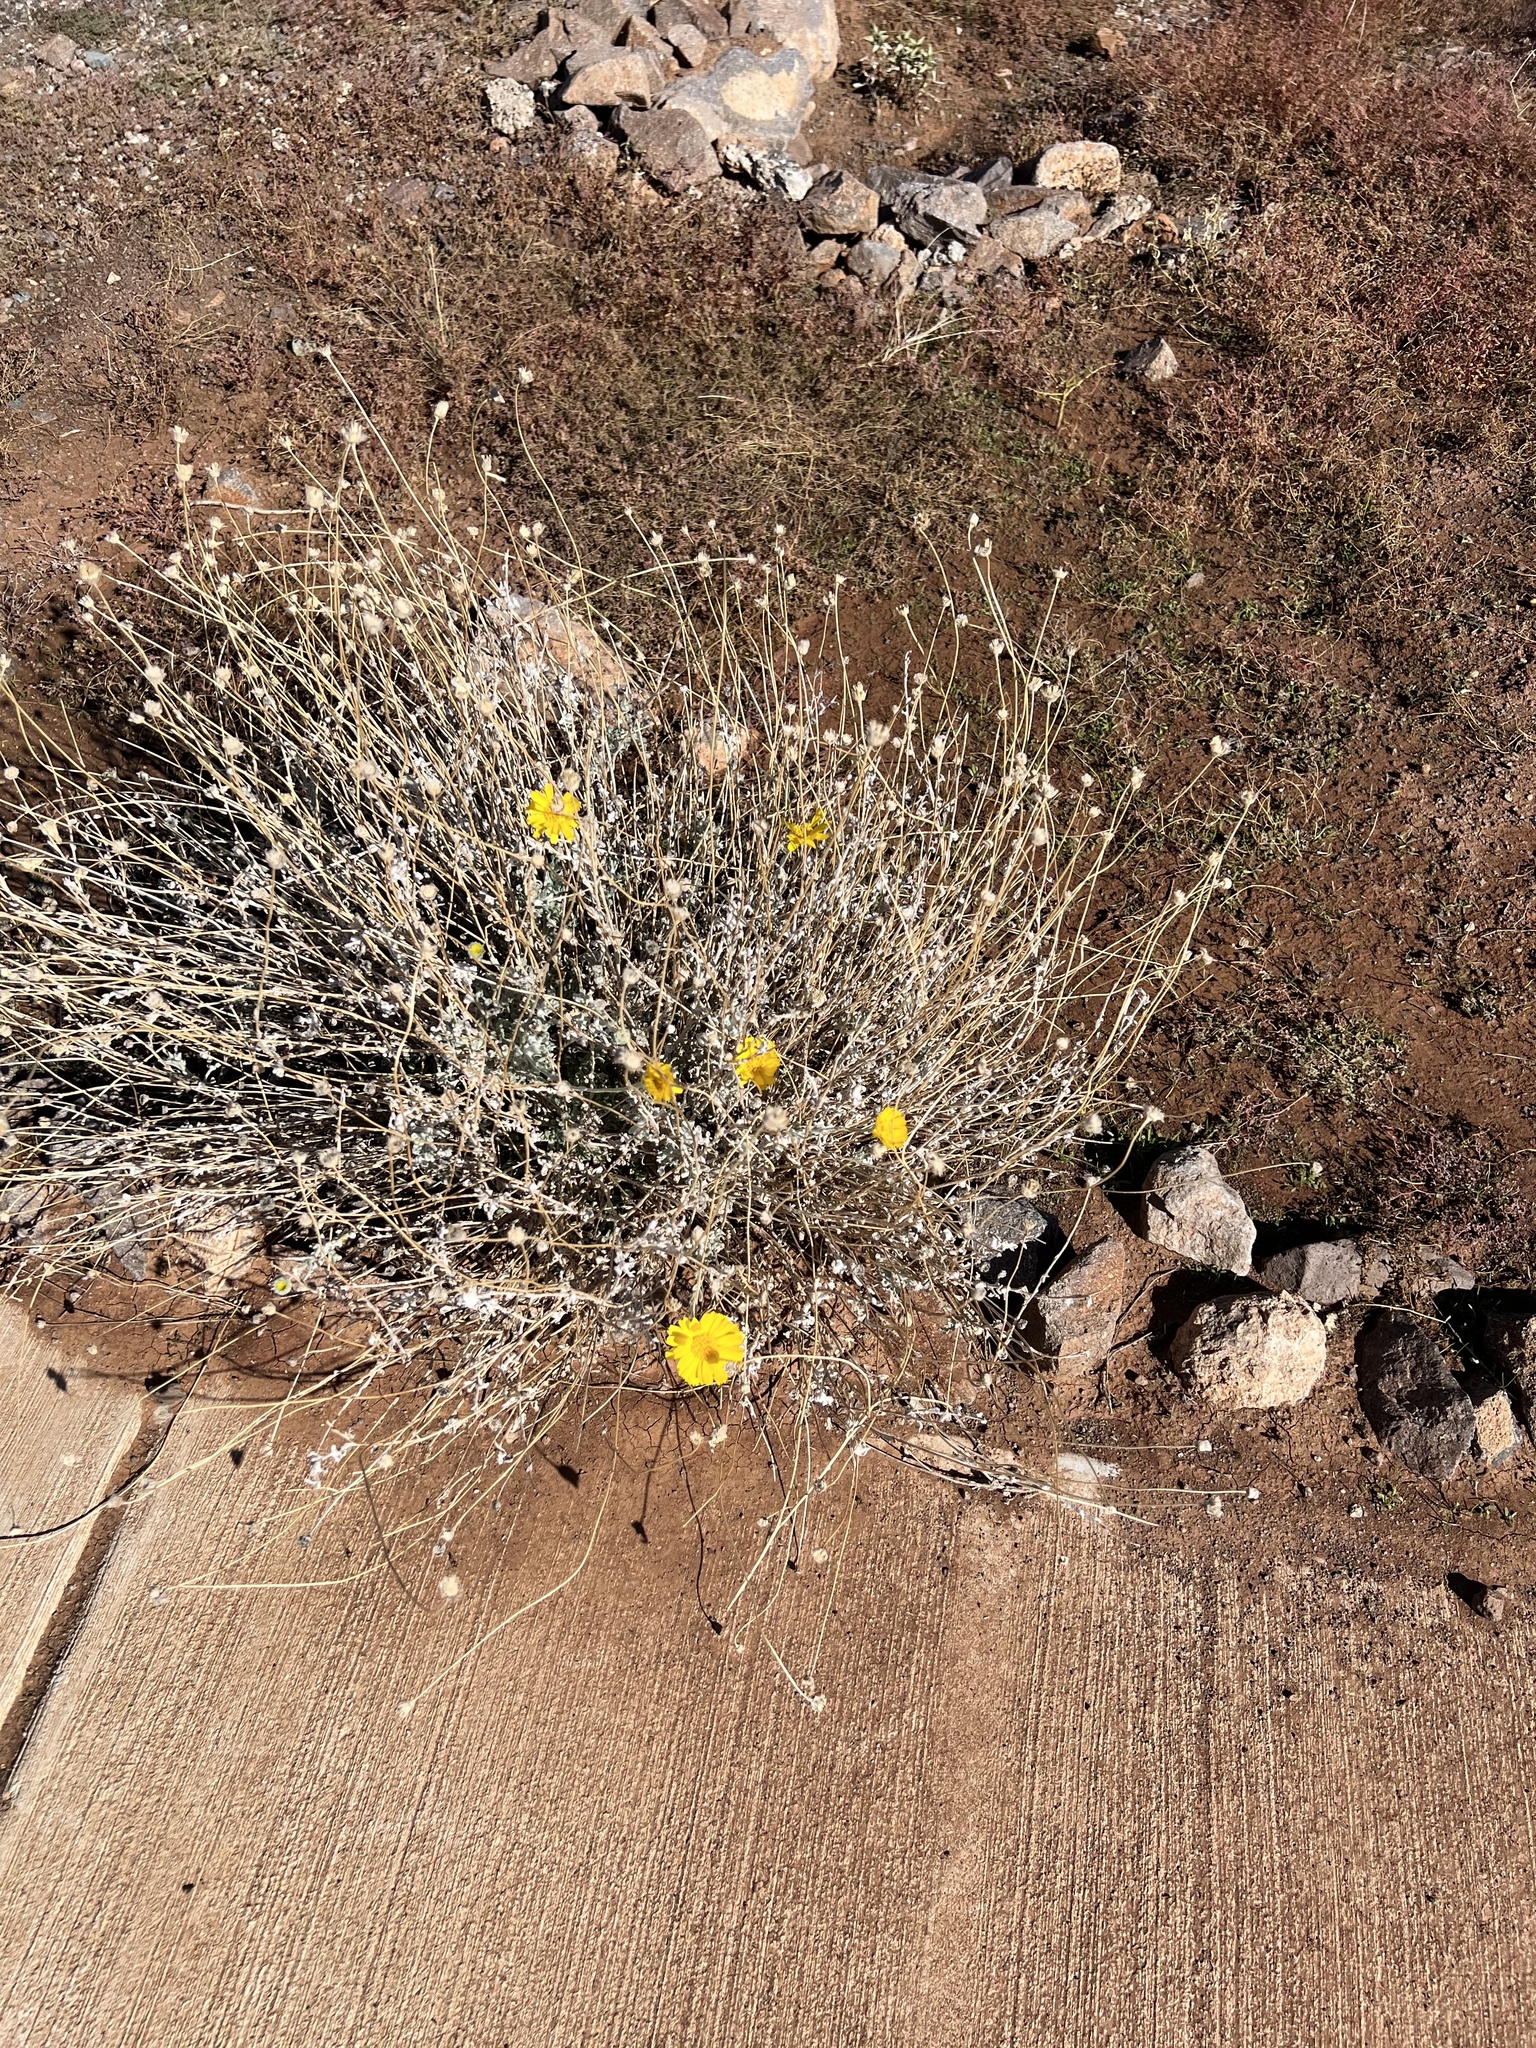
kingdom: Plantae
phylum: Tracheophyta
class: Magnoliopsida
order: Asterales
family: Asteraceae
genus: Baileya
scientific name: Baileya multiradiata
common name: Desert-marigold
